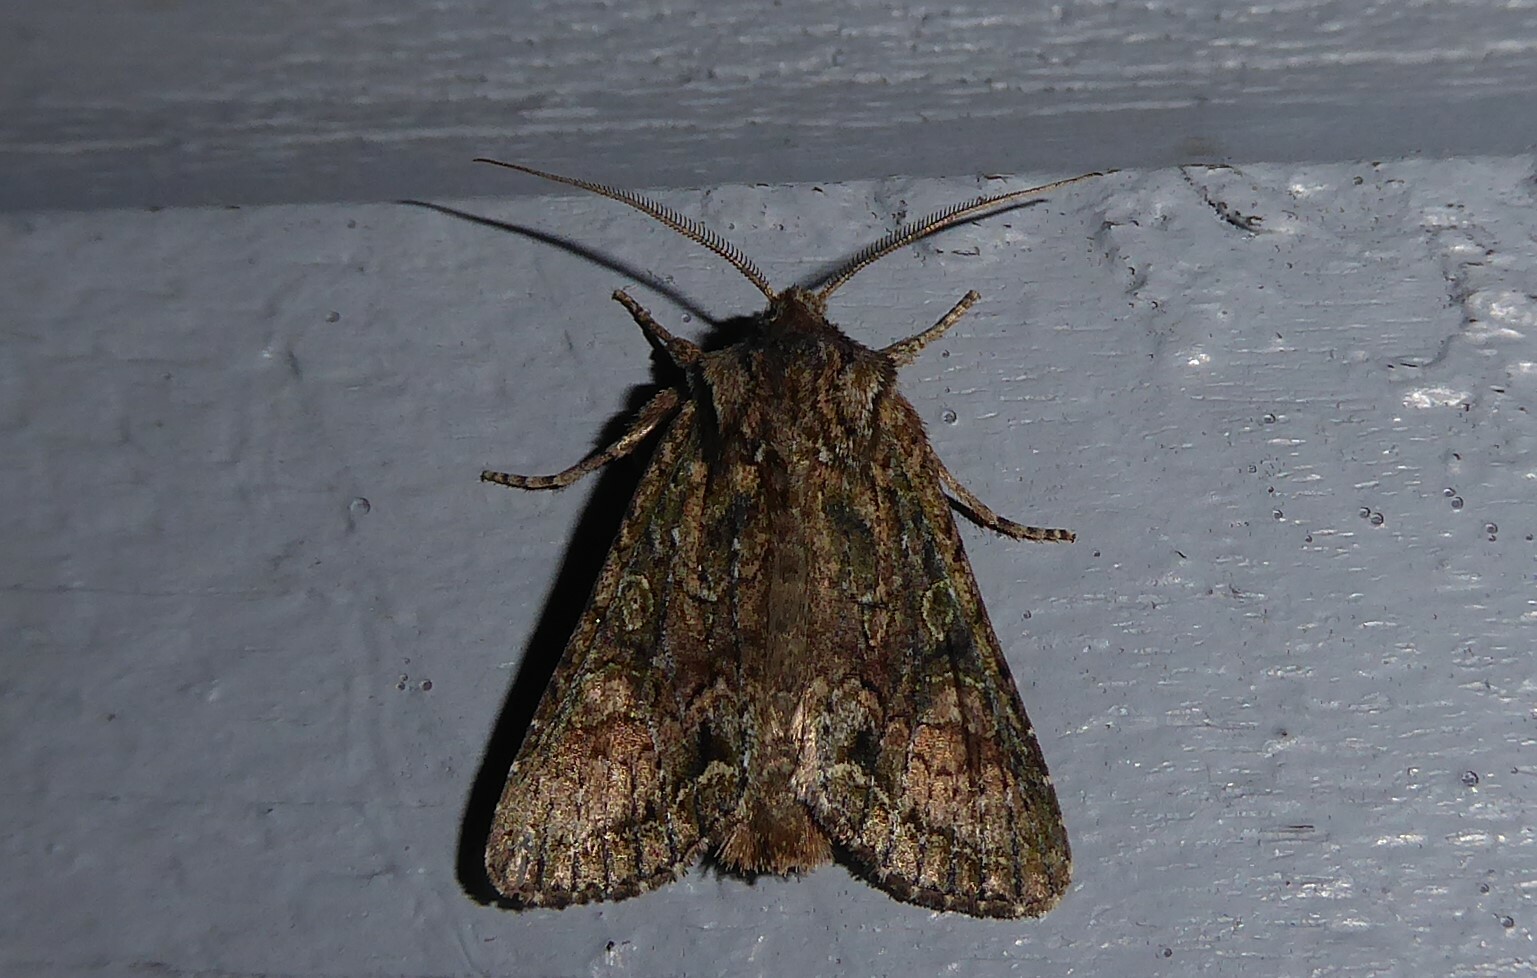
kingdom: Animalia
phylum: Arthropoda
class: Insecta
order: Lepidoptera
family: Noctuidae
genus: Ichneutica
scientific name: Ichneutica mutans
